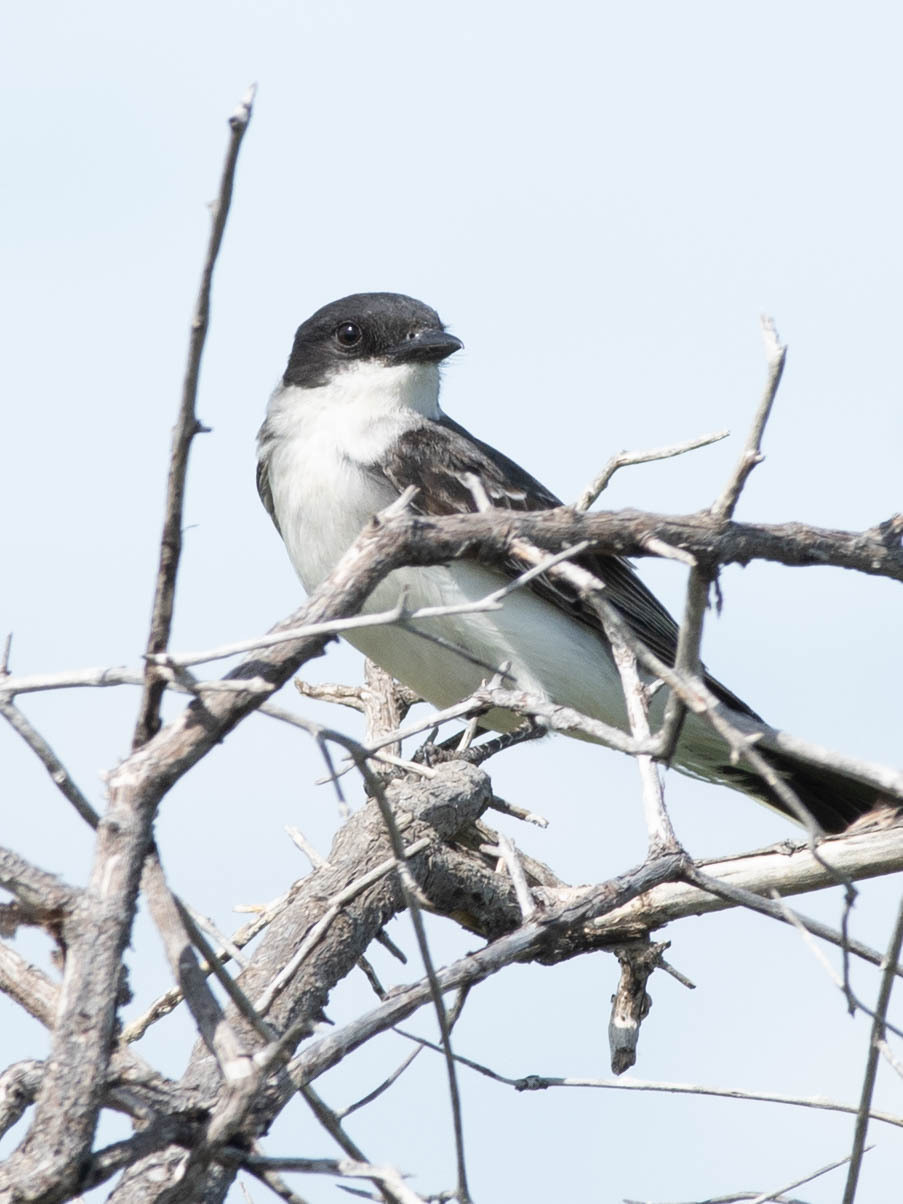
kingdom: Animalia
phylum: Chordata
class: Aves
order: Passeriformes
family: Tyrannidae
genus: Tyrannus
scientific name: Tyrannus tyrannus
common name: Eastern kingbird
